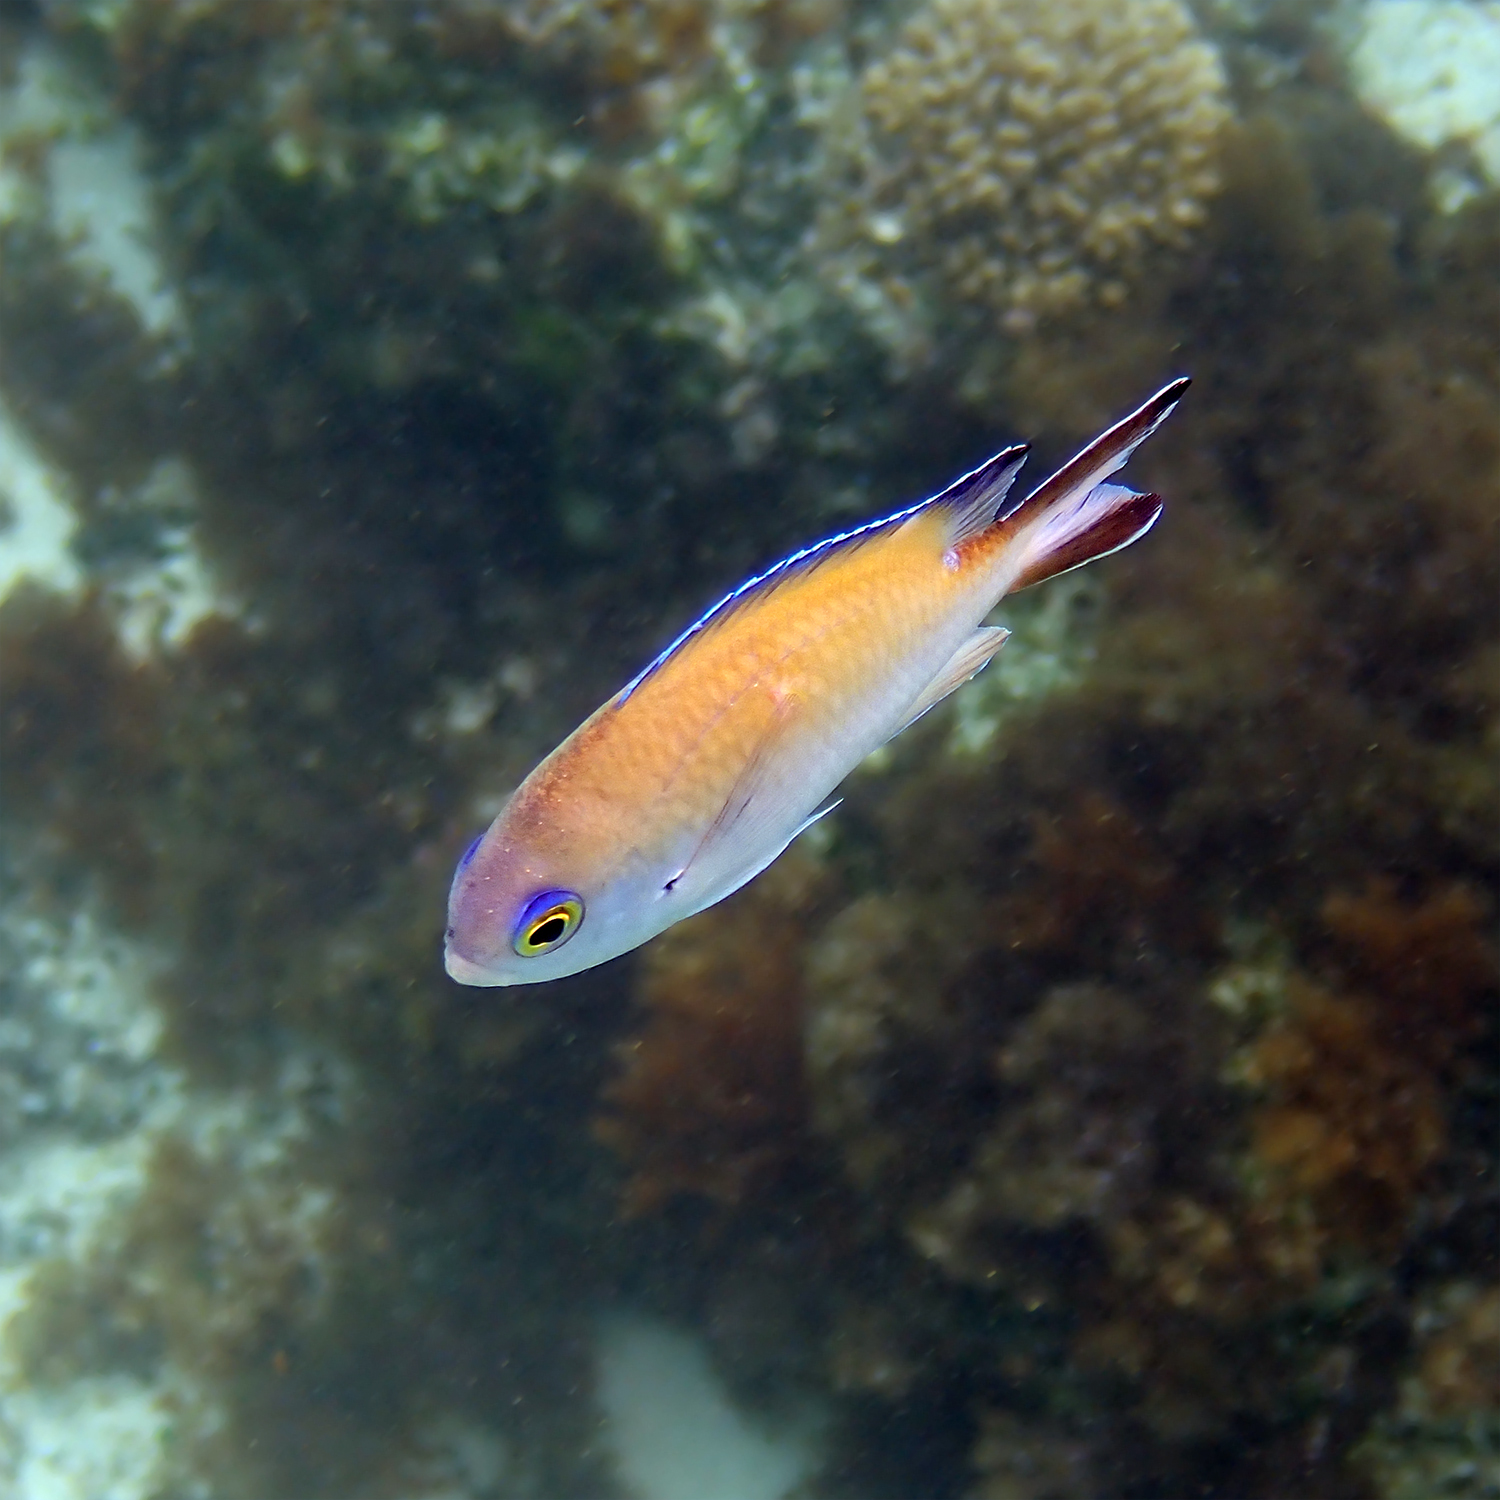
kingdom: Animalia
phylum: Chordata
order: Perciformes
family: Pomacentridae
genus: Chromis
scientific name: Chromis norfolkensis
